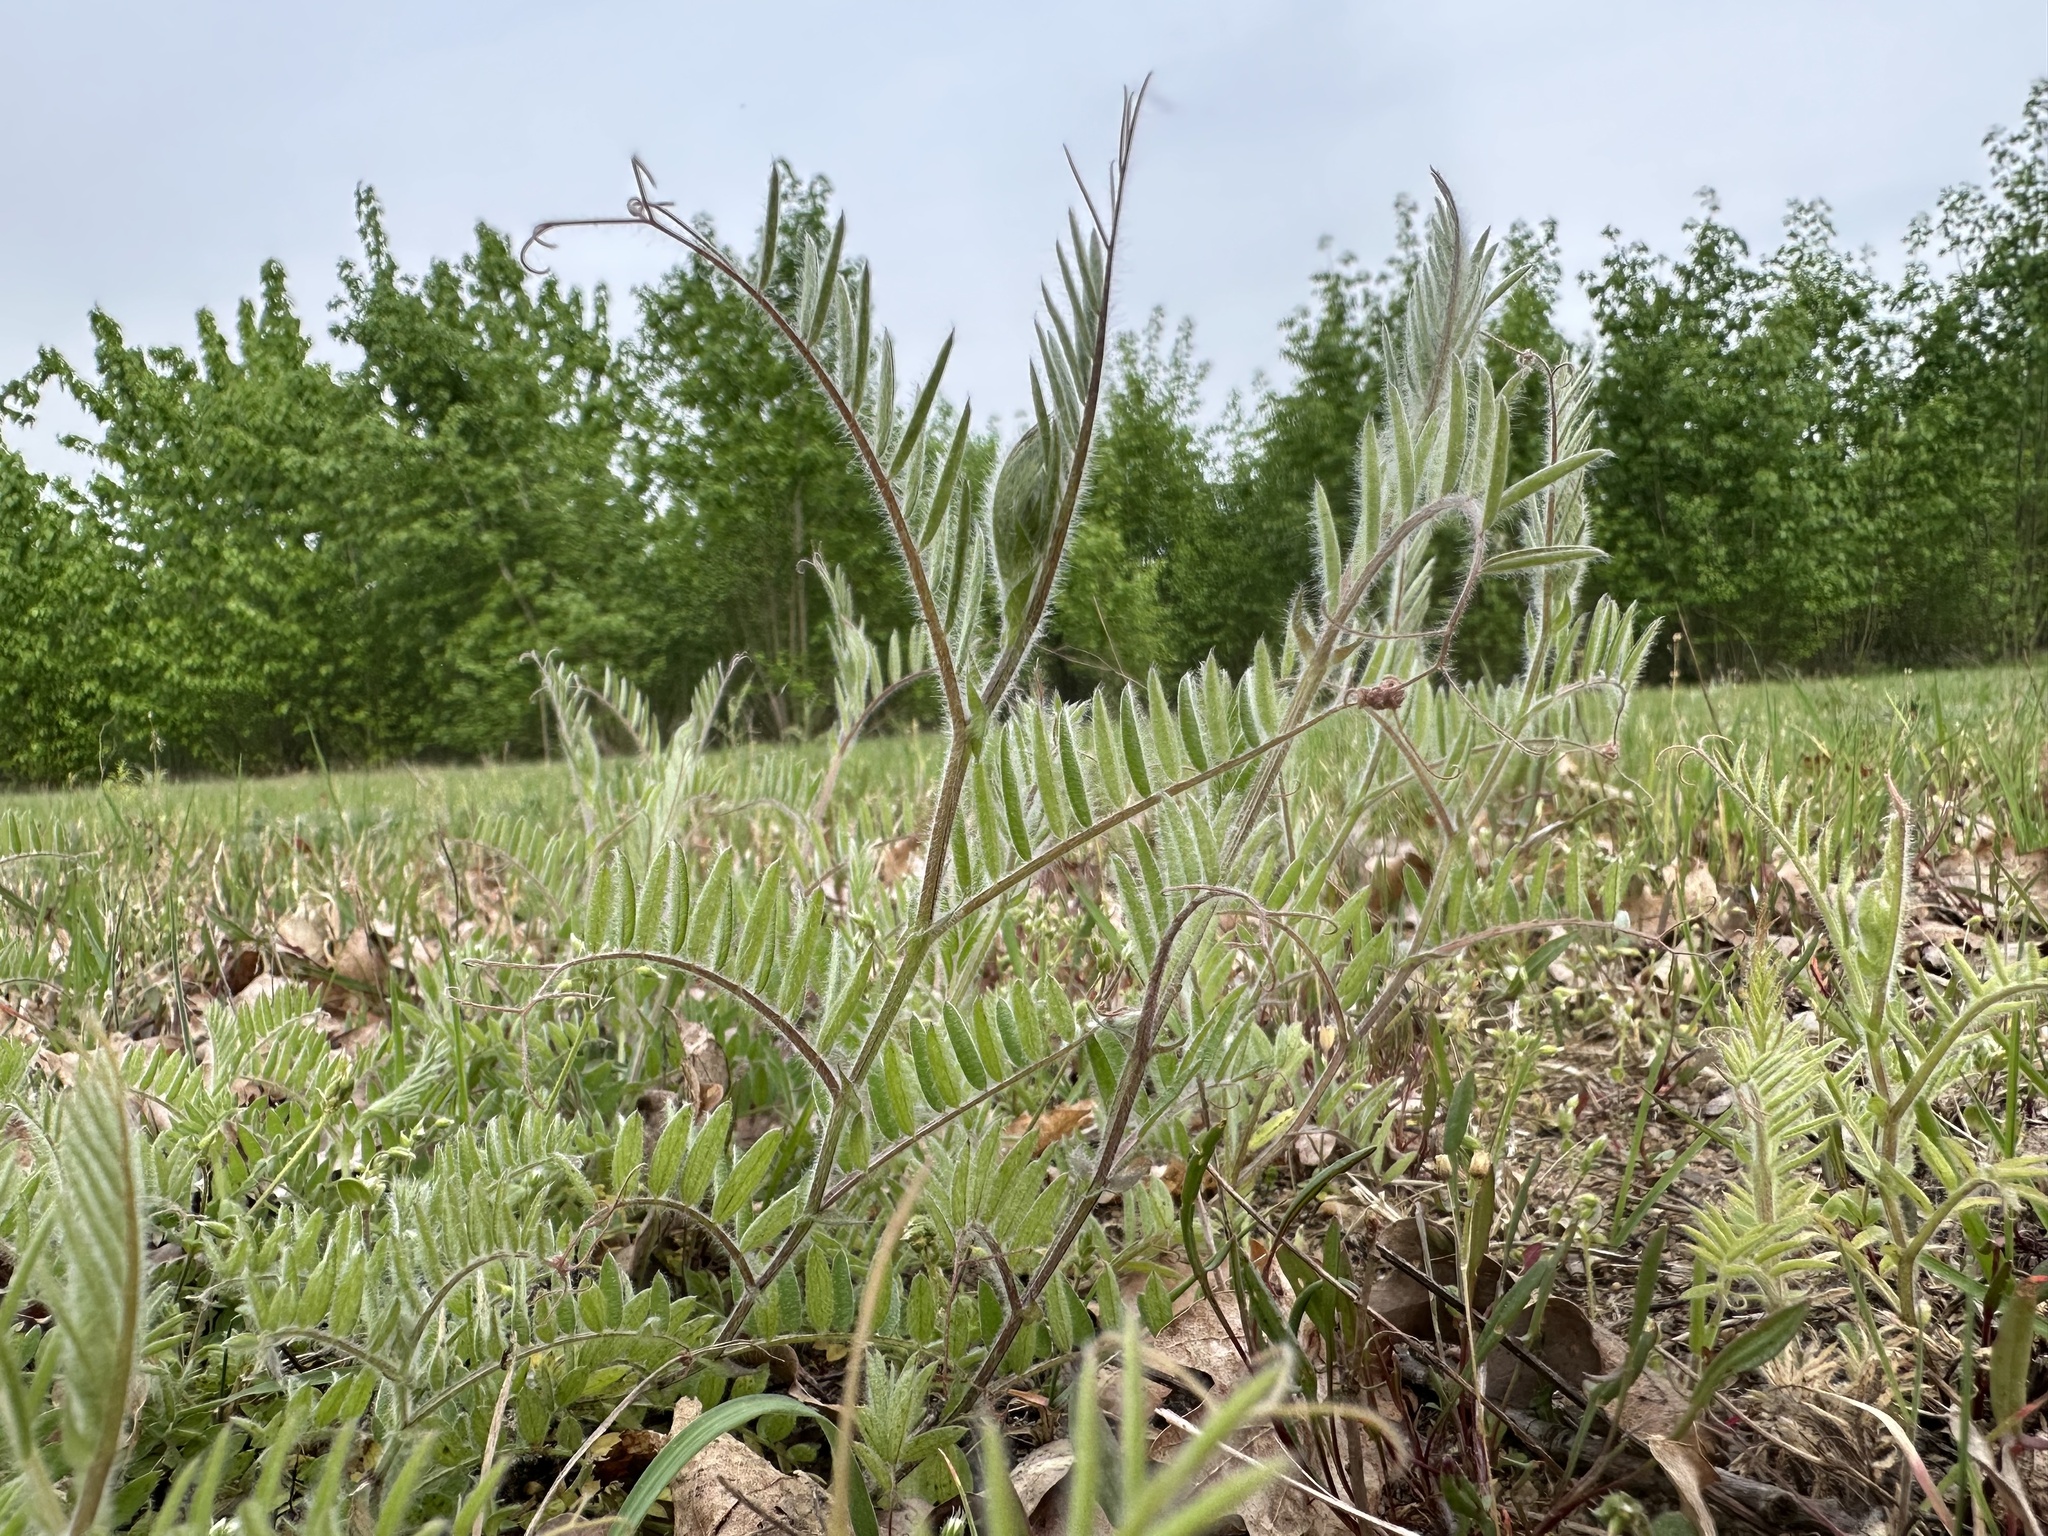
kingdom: Plantae
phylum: Tracheophyta
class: Magnoliopsida
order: Fabales
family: Fabaceae
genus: Vicia
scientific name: Vicia villosa
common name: Fodder vetch
